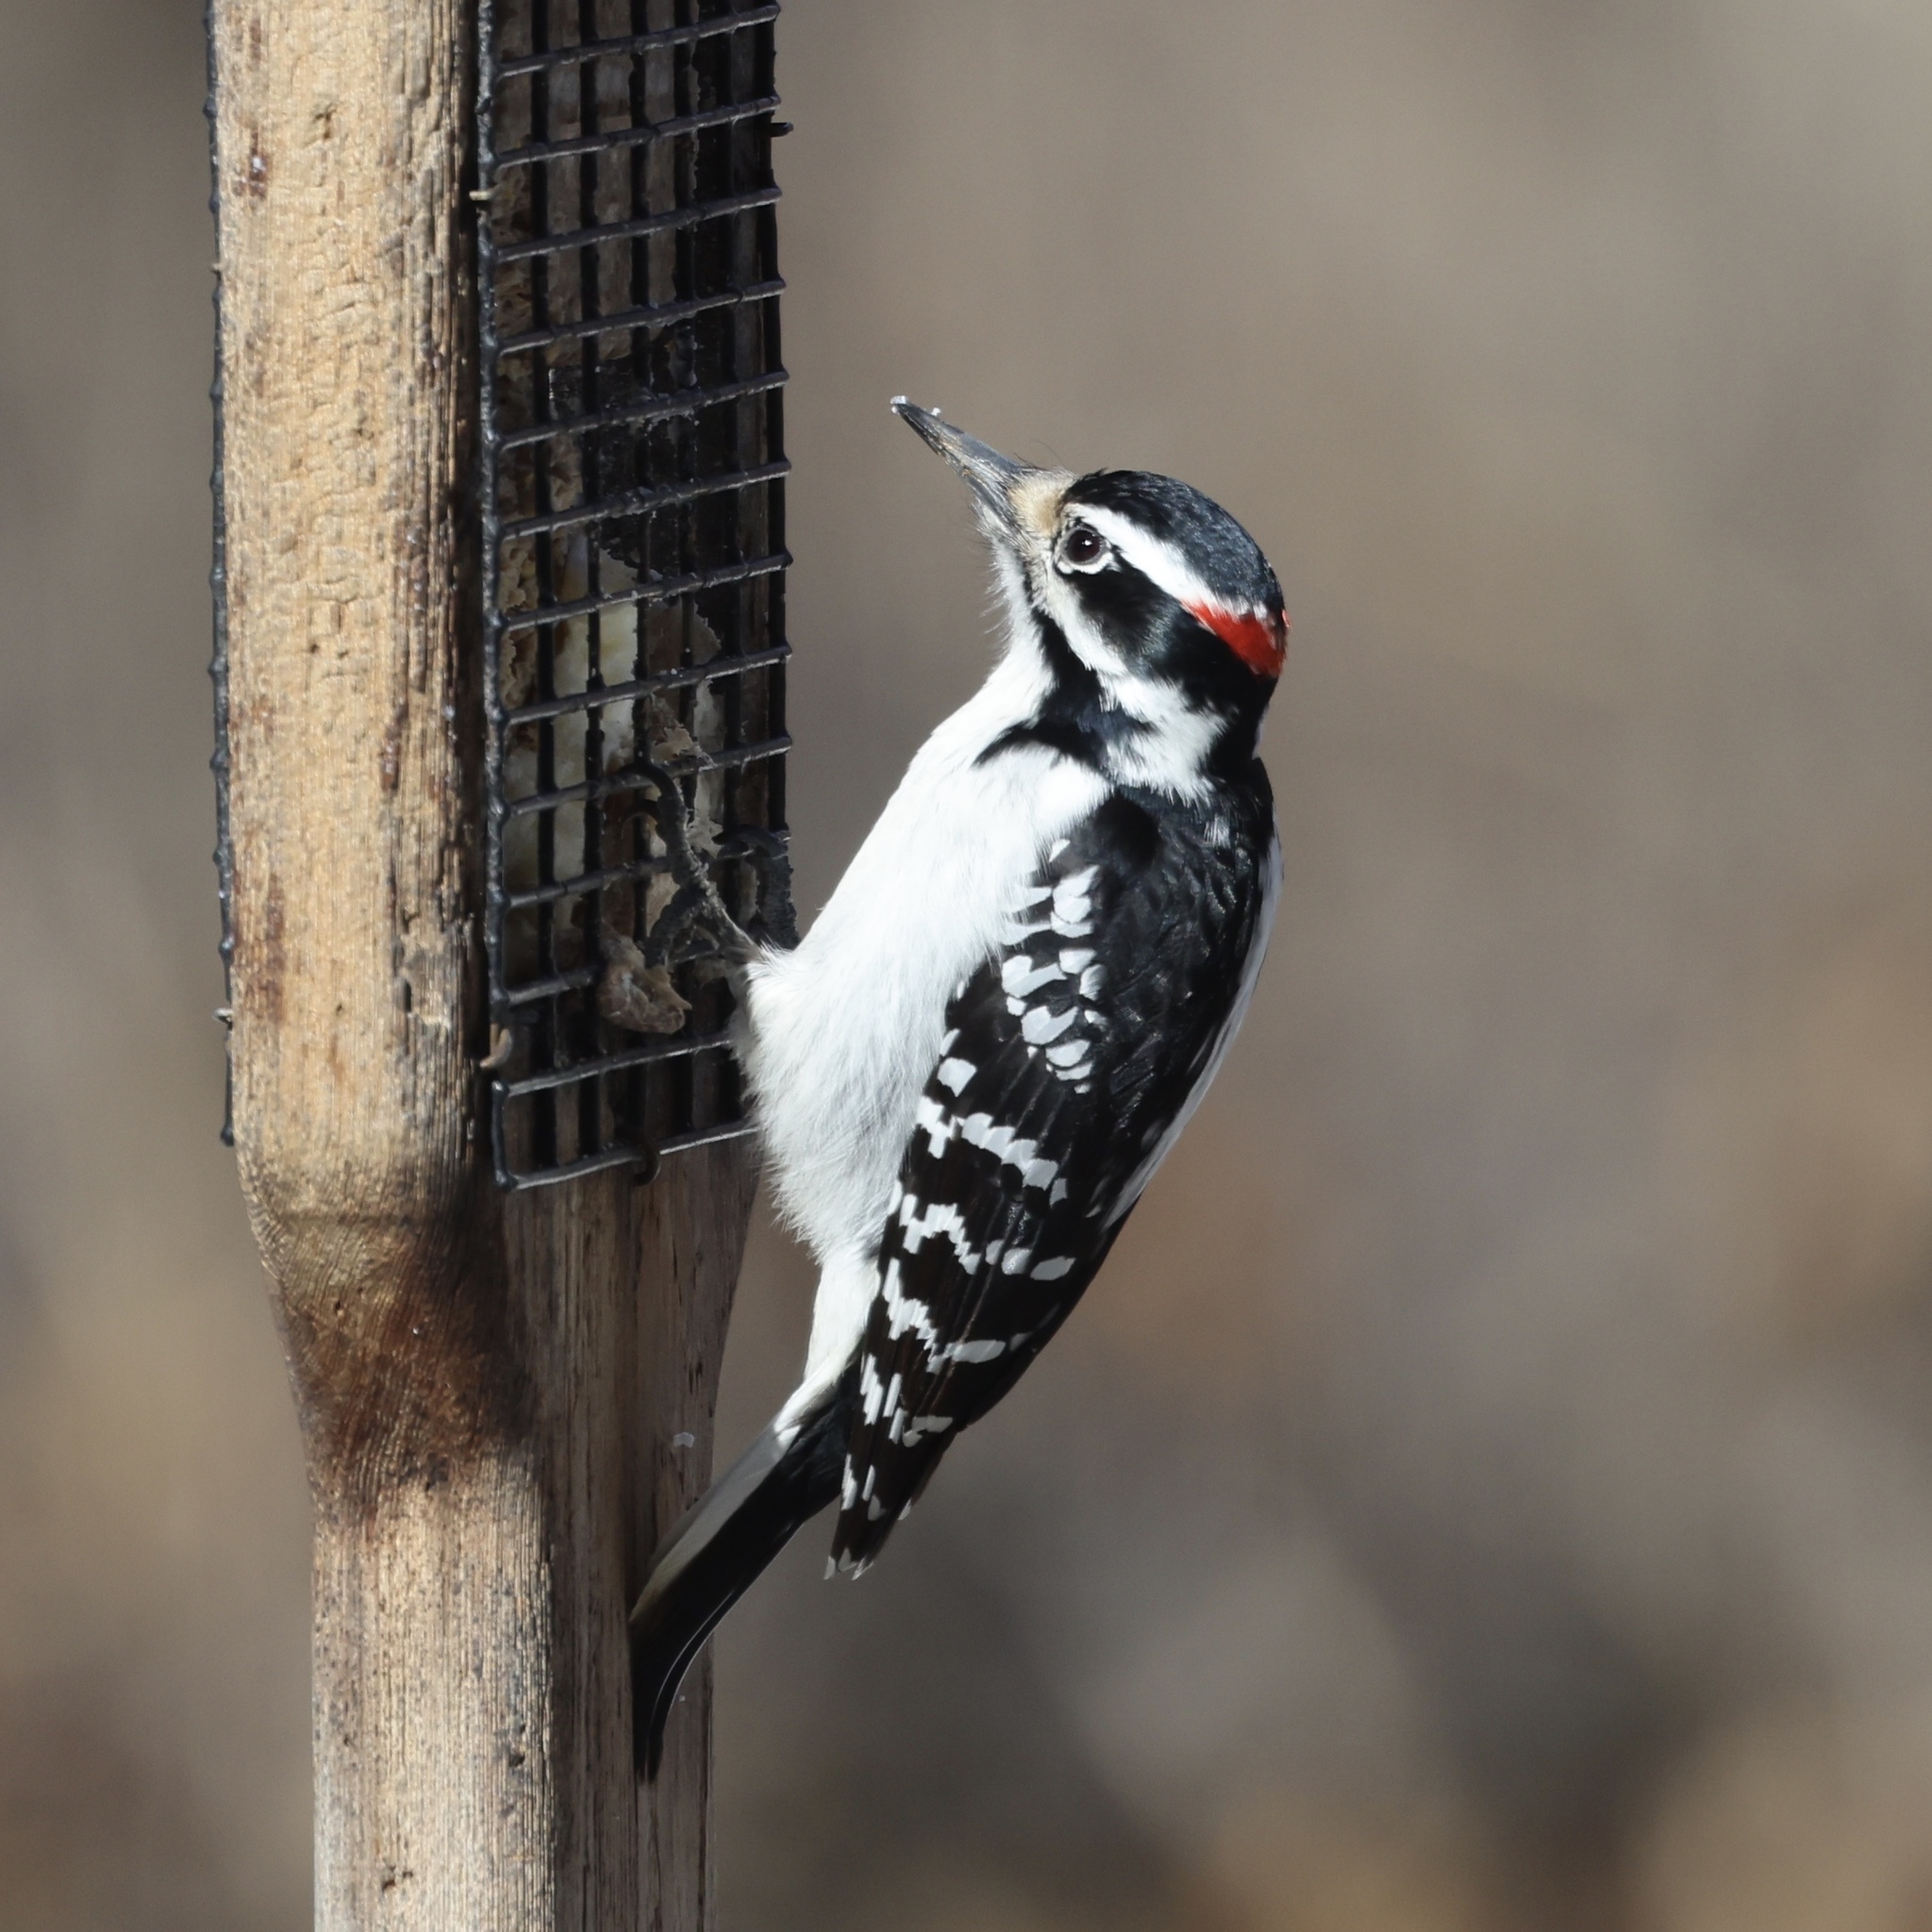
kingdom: Animalia
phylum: Chordata
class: Aves
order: Piciformes
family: Picidae
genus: Leuconotopicus
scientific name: Leuconotopicus villosus
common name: Hairy woodpecker
